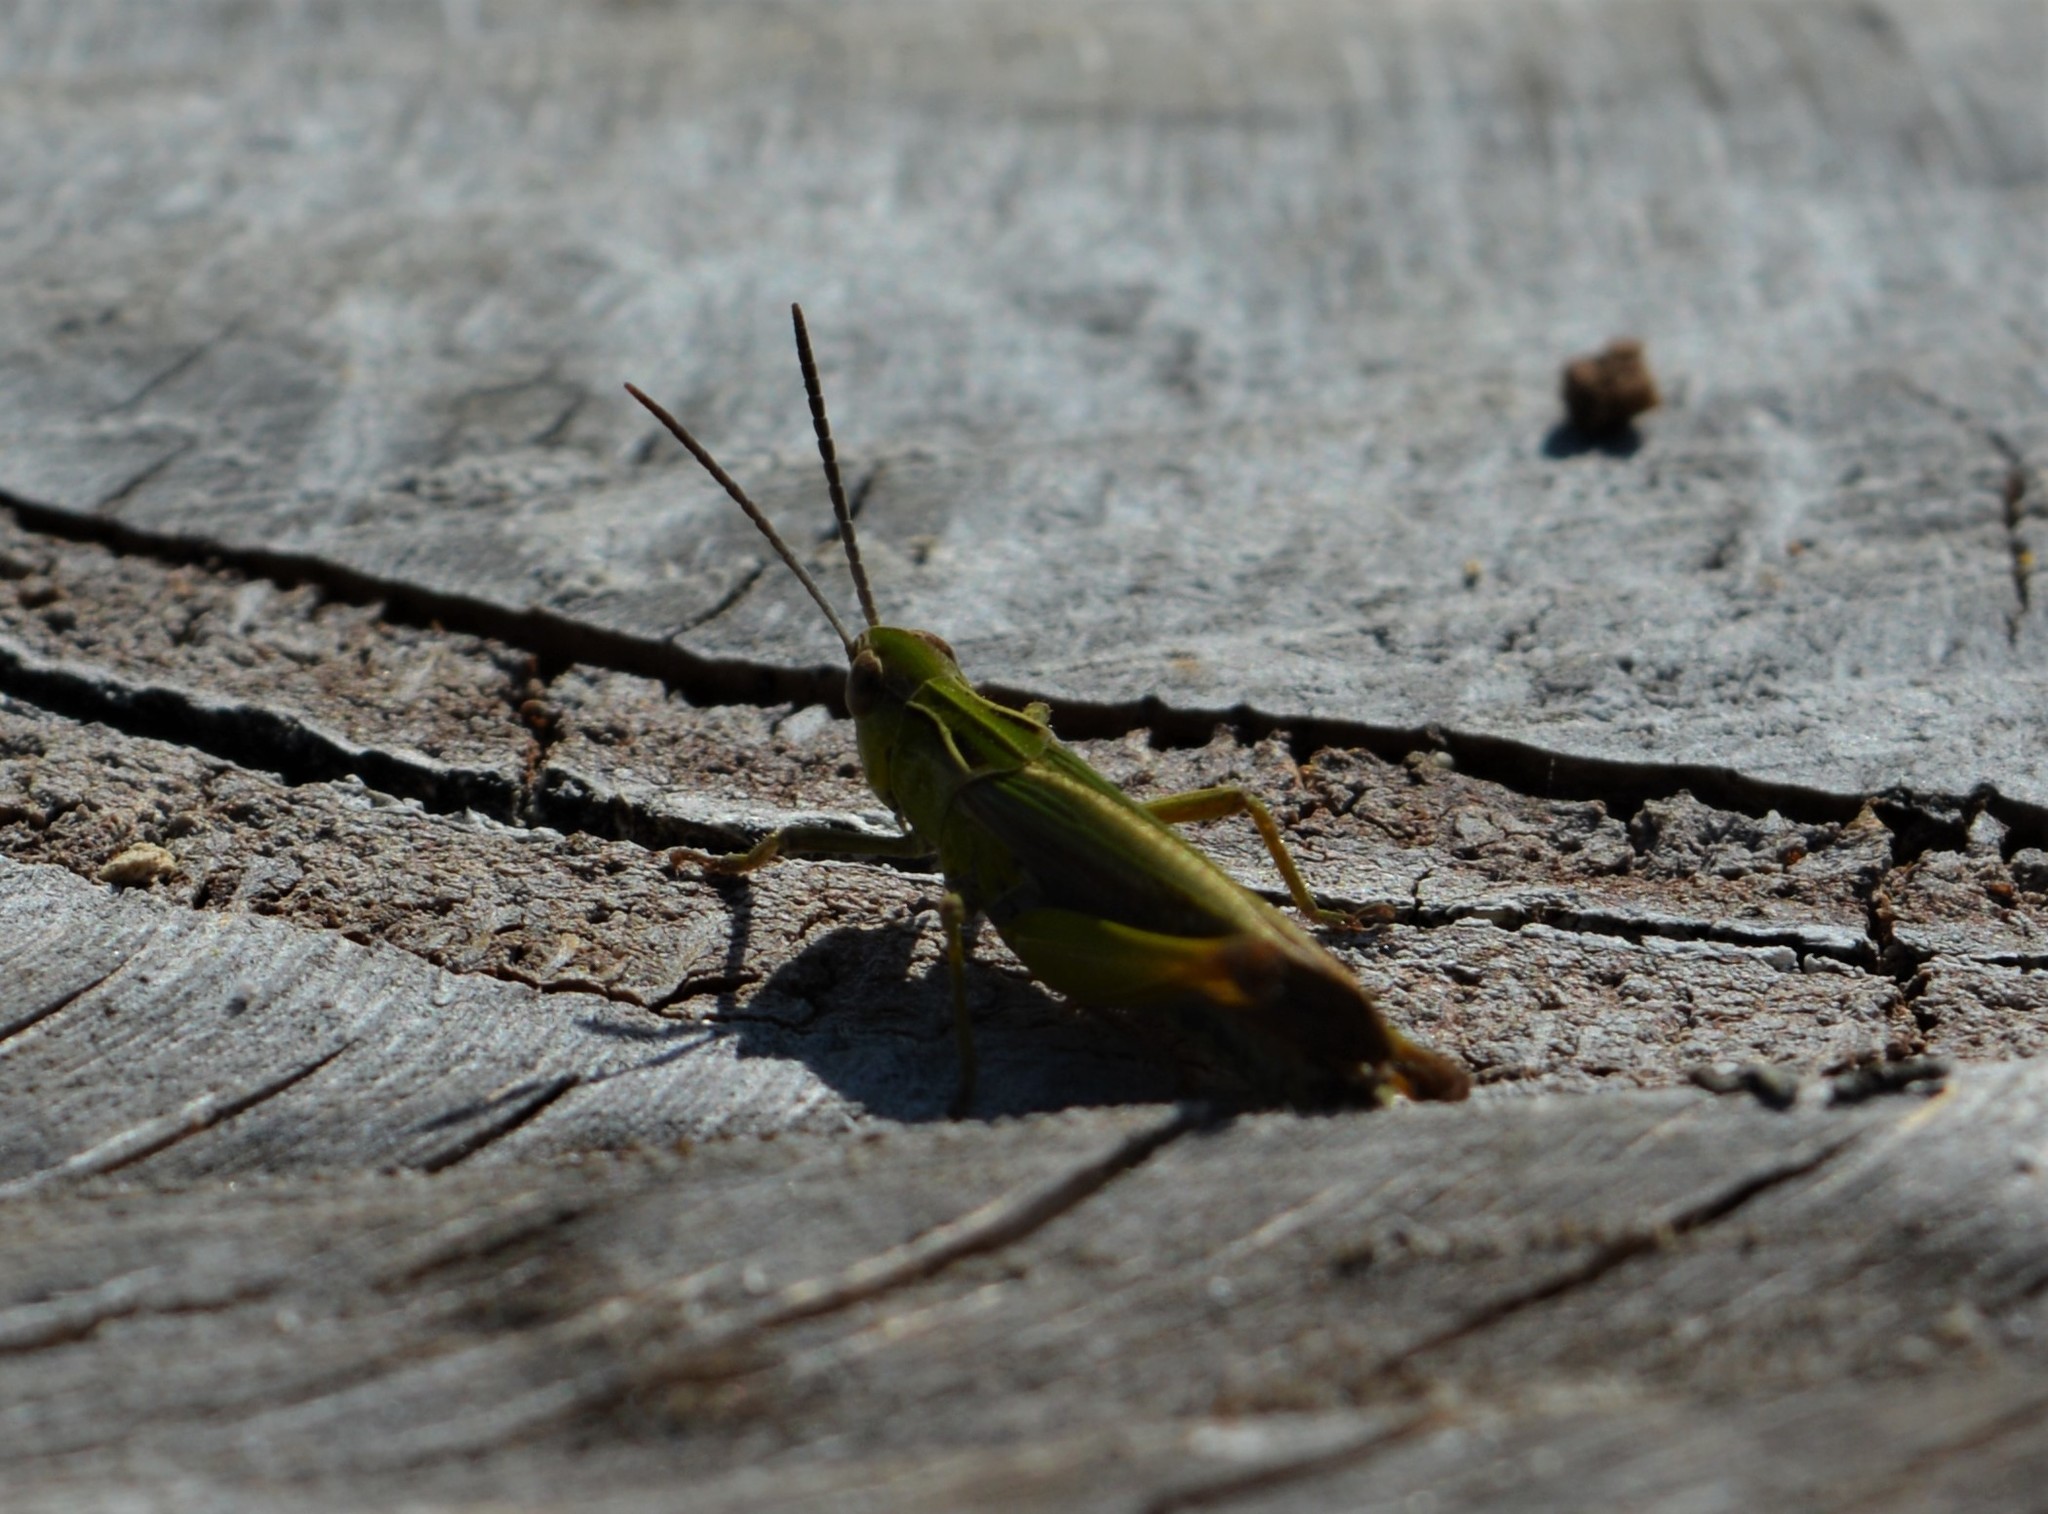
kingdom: Animalia
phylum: Arthropoda
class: Insecta
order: Orthoptera
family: Acrididae
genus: Omocestus
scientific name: Omocestus viridulus
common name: Common green grasshopper
